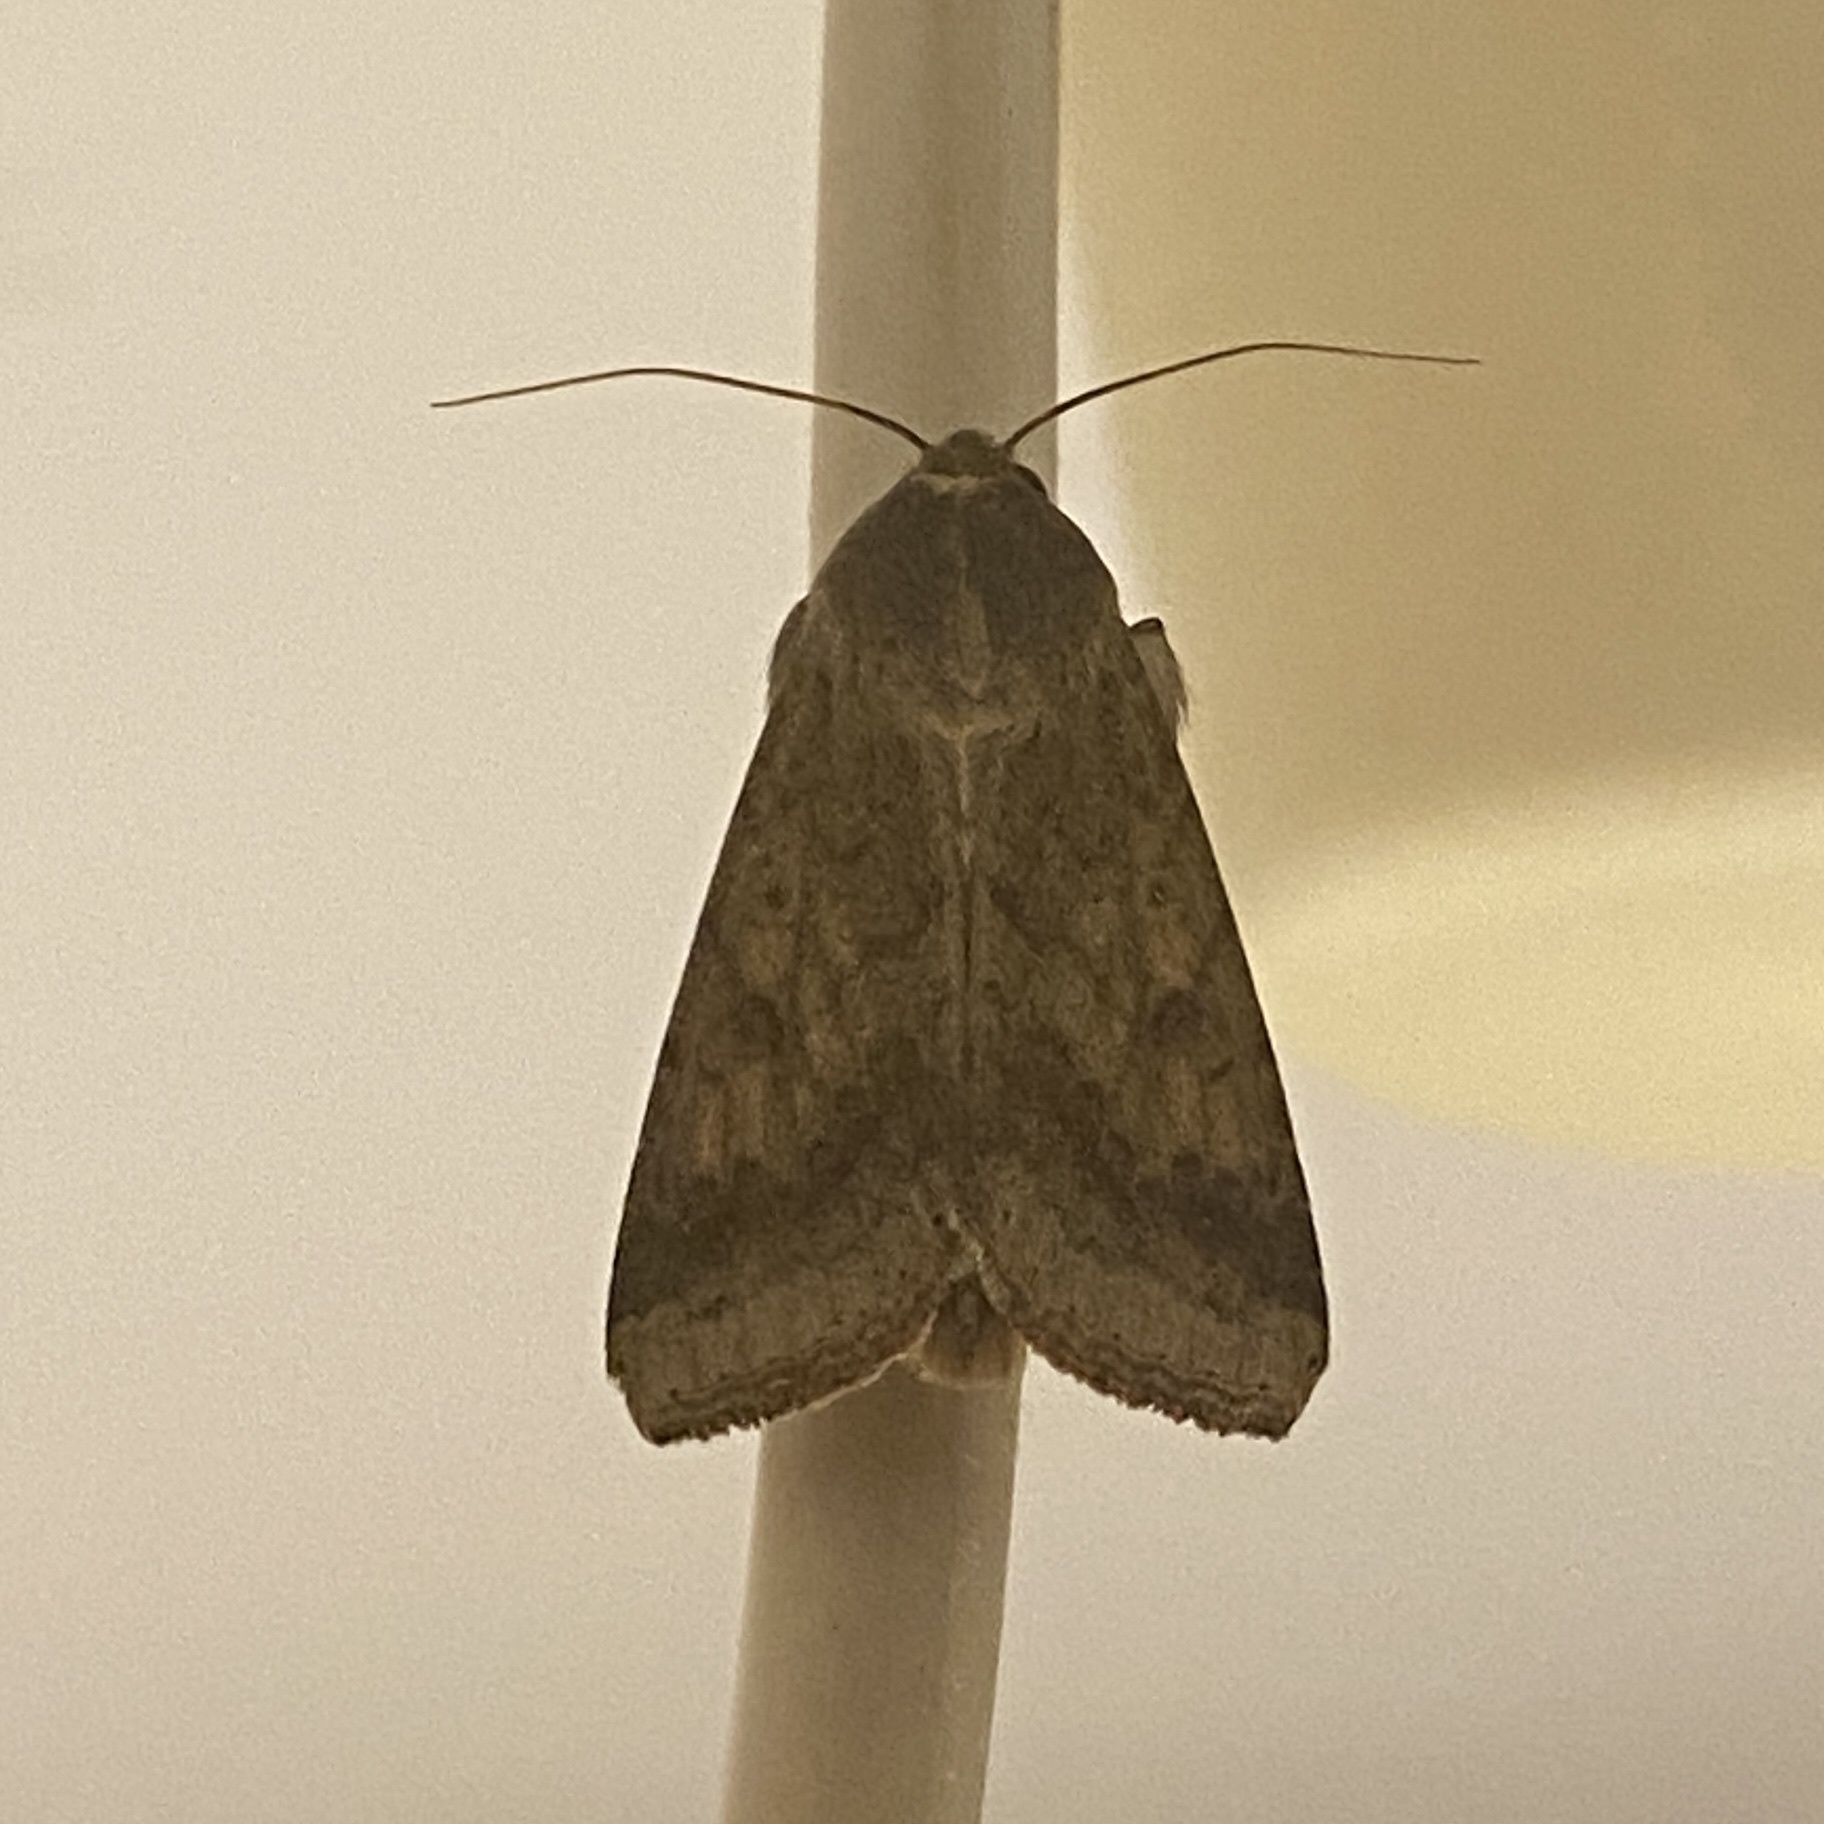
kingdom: Animalia
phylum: Arthropoda
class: Insecta
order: Lepidoptera
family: Noctuidae
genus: Helicoverpa
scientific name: Helicoverpa armigera
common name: Cotton bollworm
